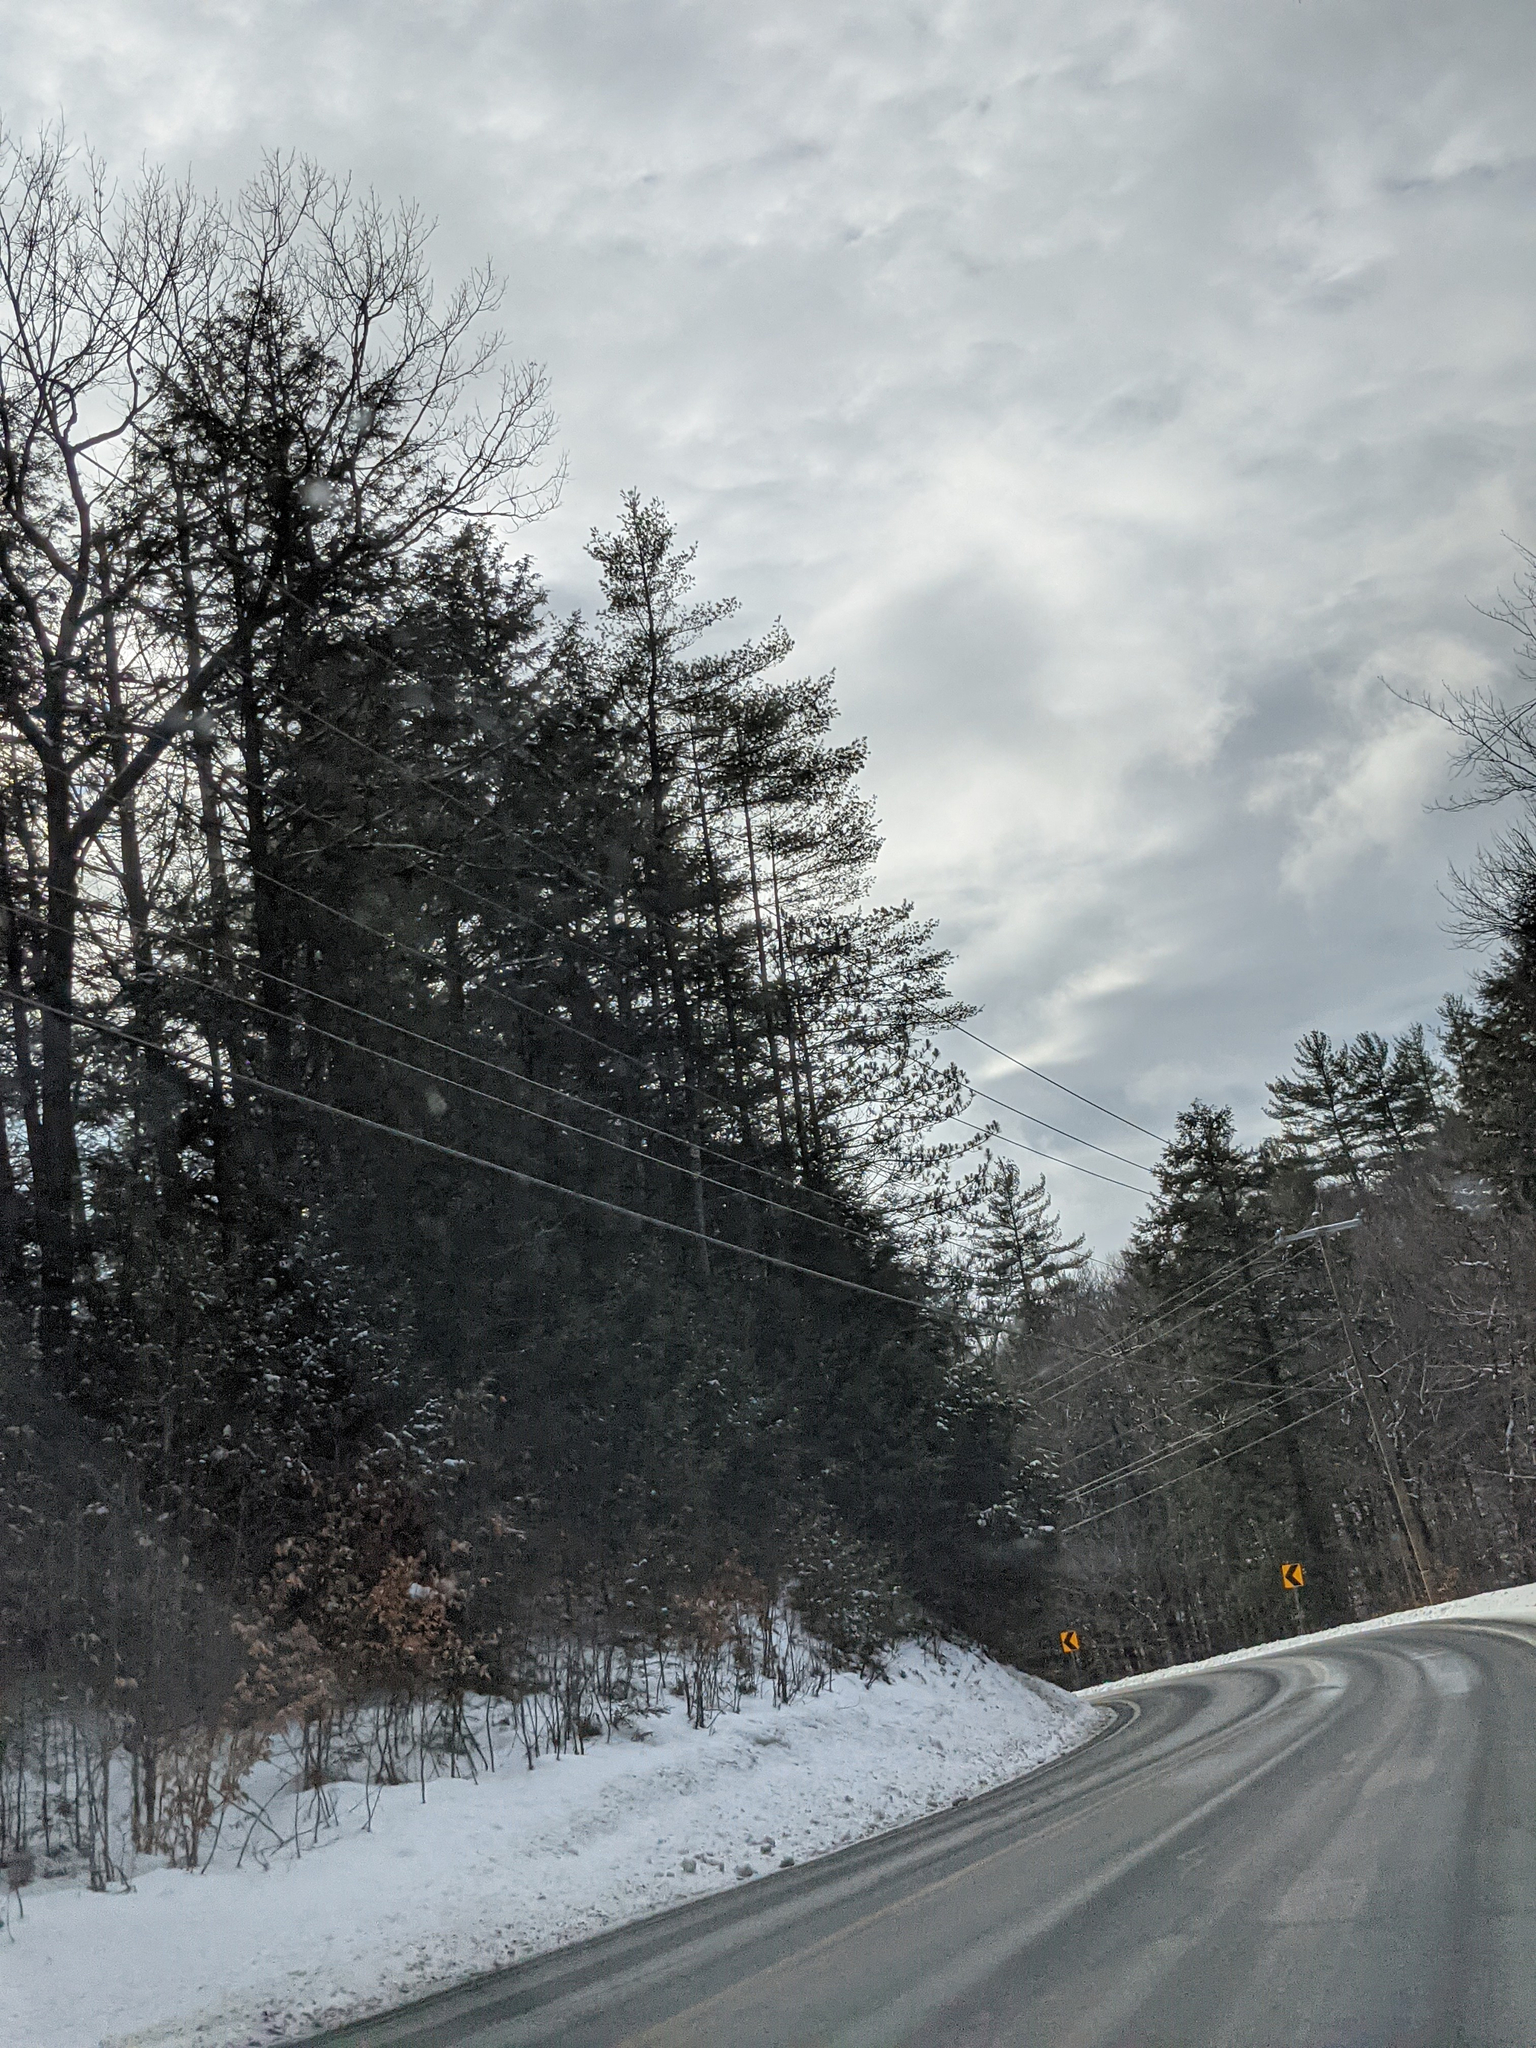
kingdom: Plantae
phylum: Tracheophyta
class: Pinopsida
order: Pinales
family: Pinaceae
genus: Pinus
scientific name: Pinus strobus
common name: Weymouth pine
